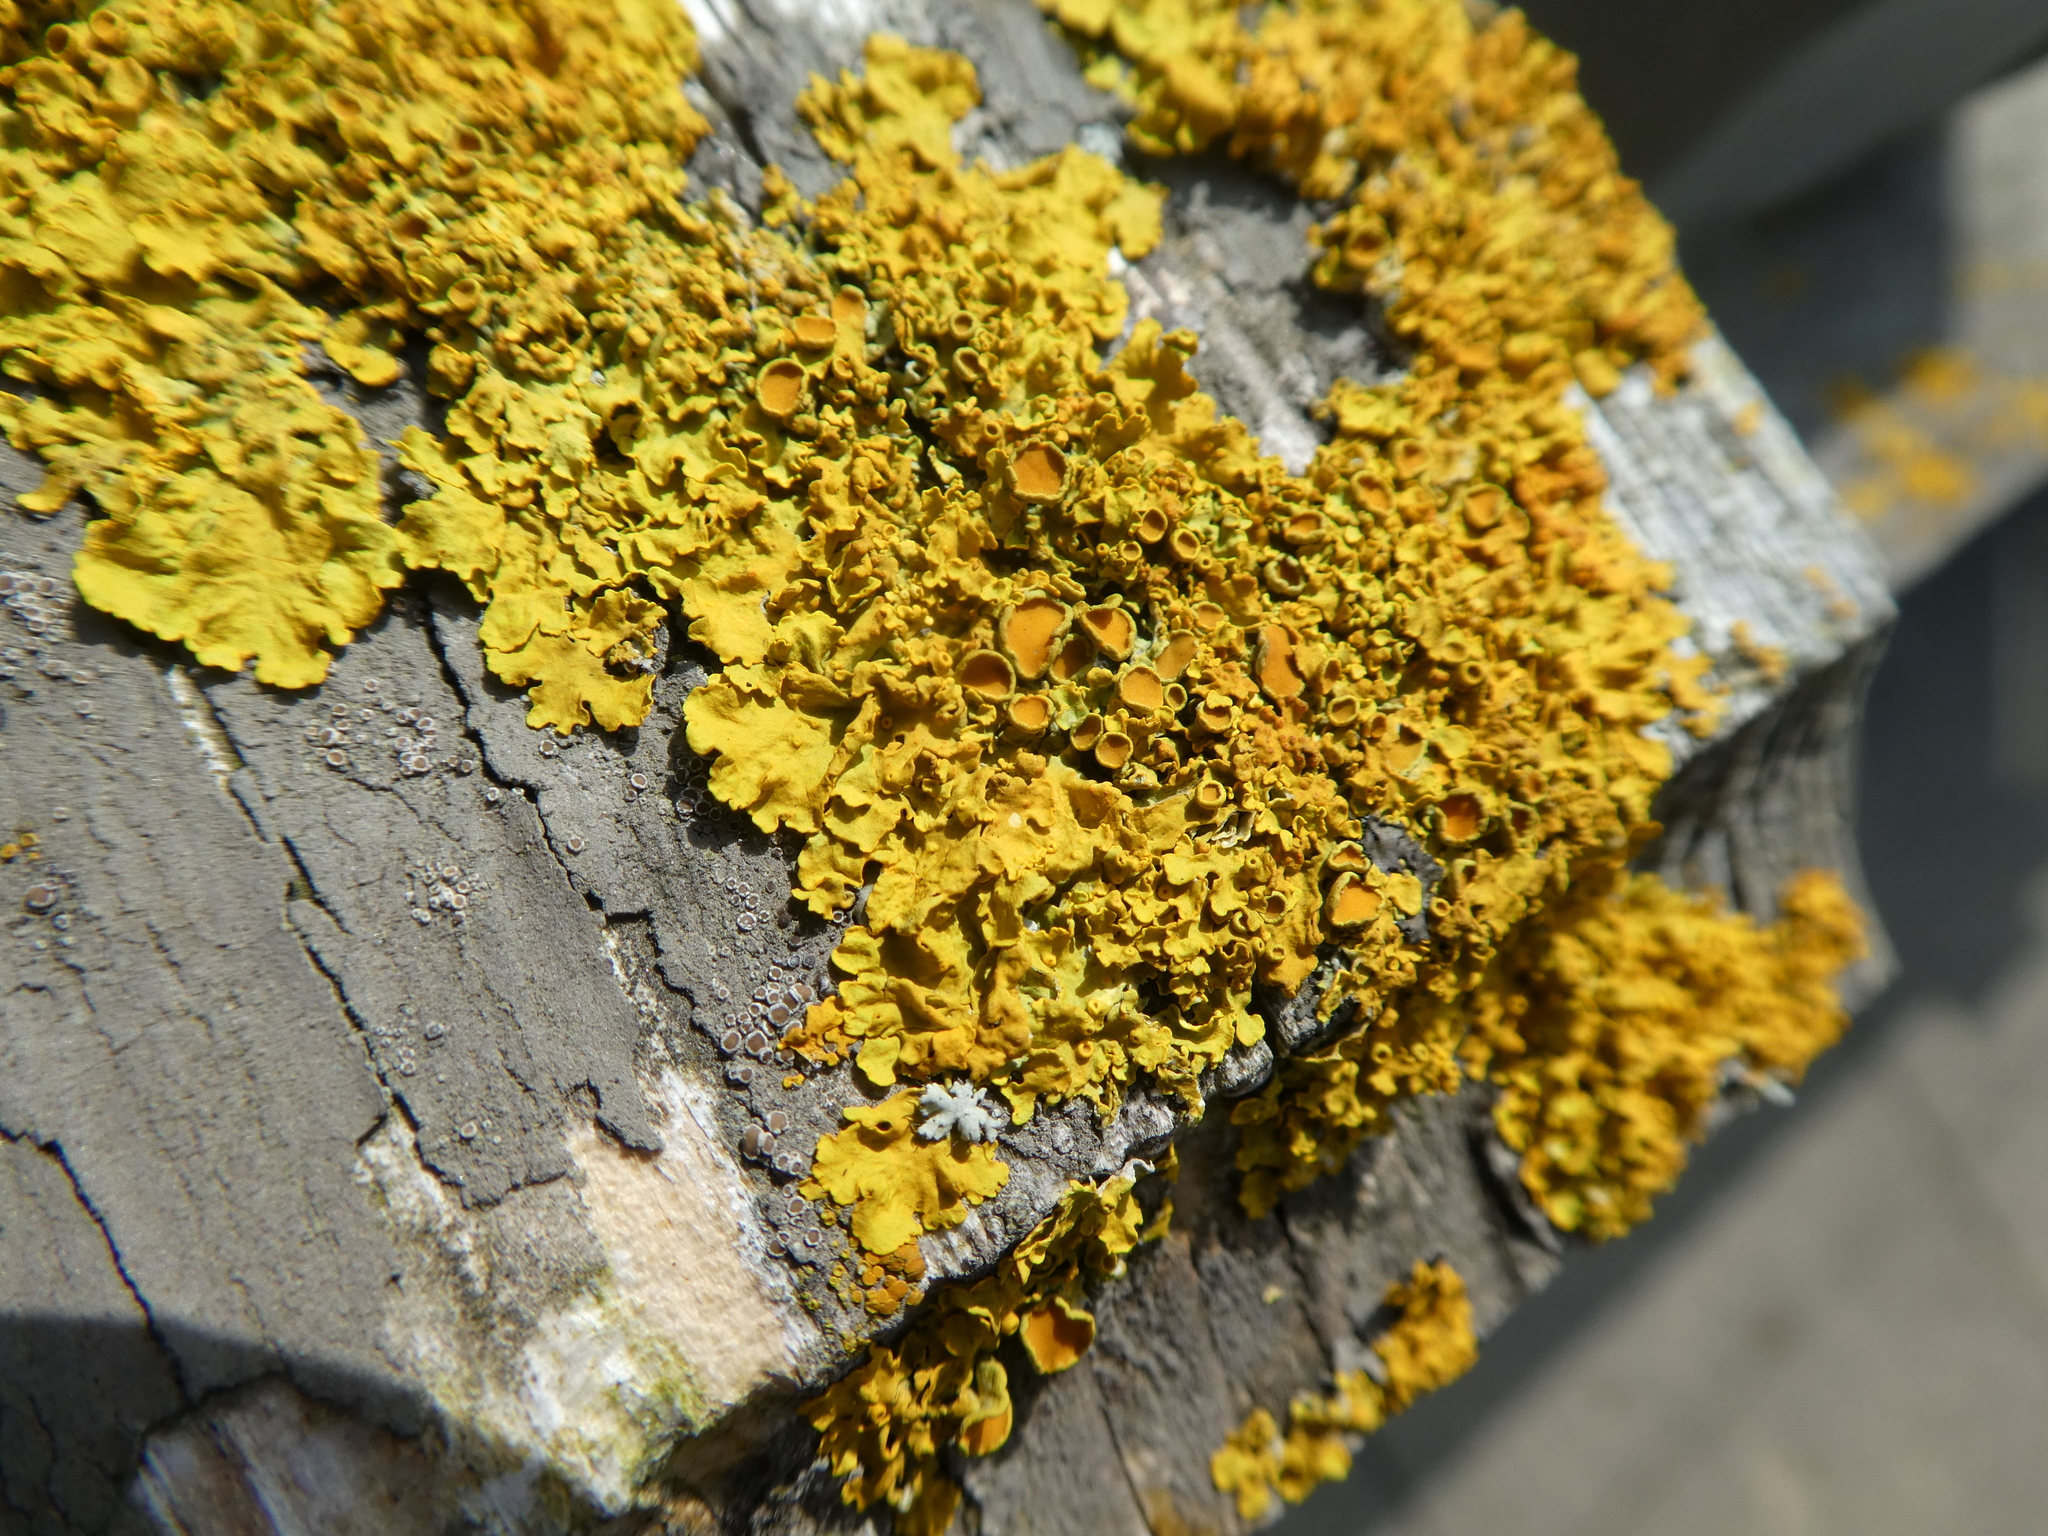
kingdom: Fungi
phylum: Ascomycota
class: Lecanoromycetes
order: Teloschistales
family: Teloschistaceae
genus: Xanthoria
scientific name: Xanthoria parietina
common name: Common orange lichen
